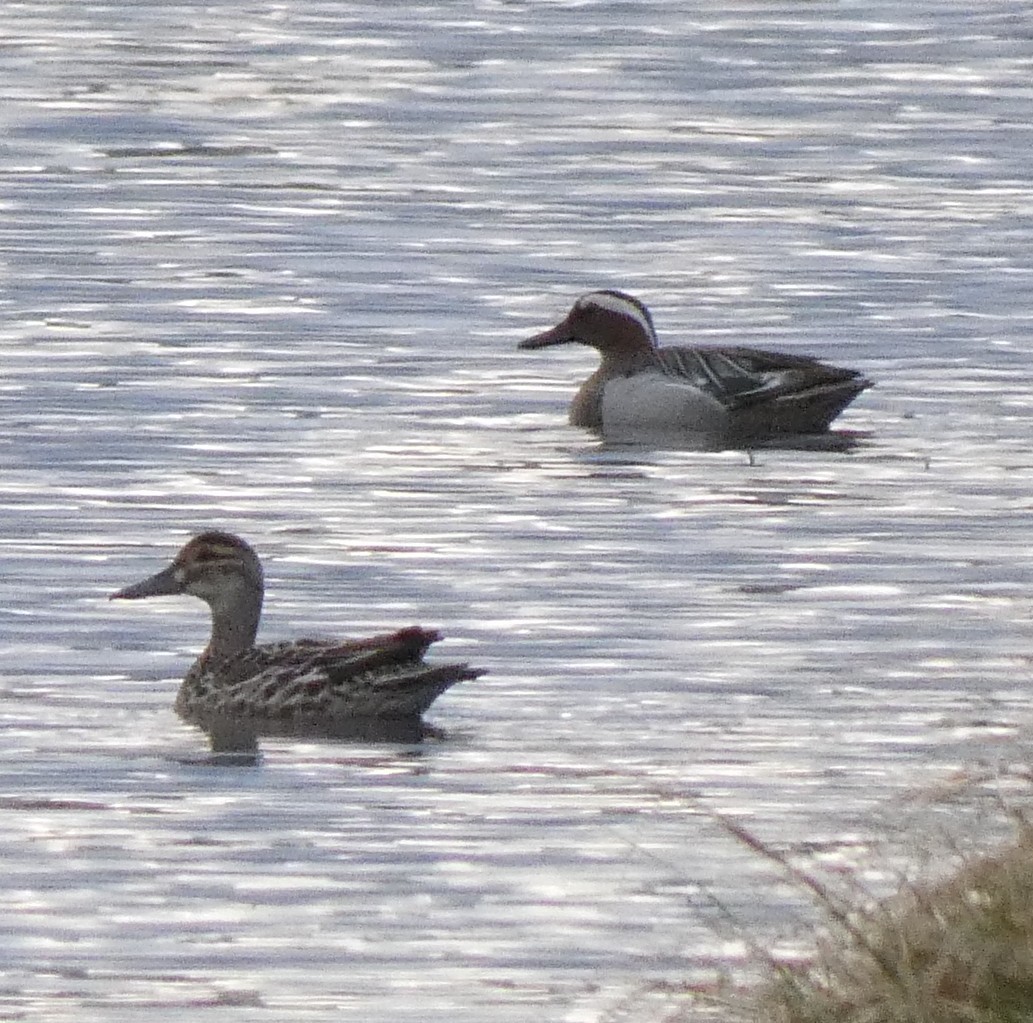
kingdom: Animalia
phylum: Chordata
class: Aves
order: Anseriformes
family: Anatidae
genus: Spatula
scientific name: Spatula querquedula
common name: Garganey
